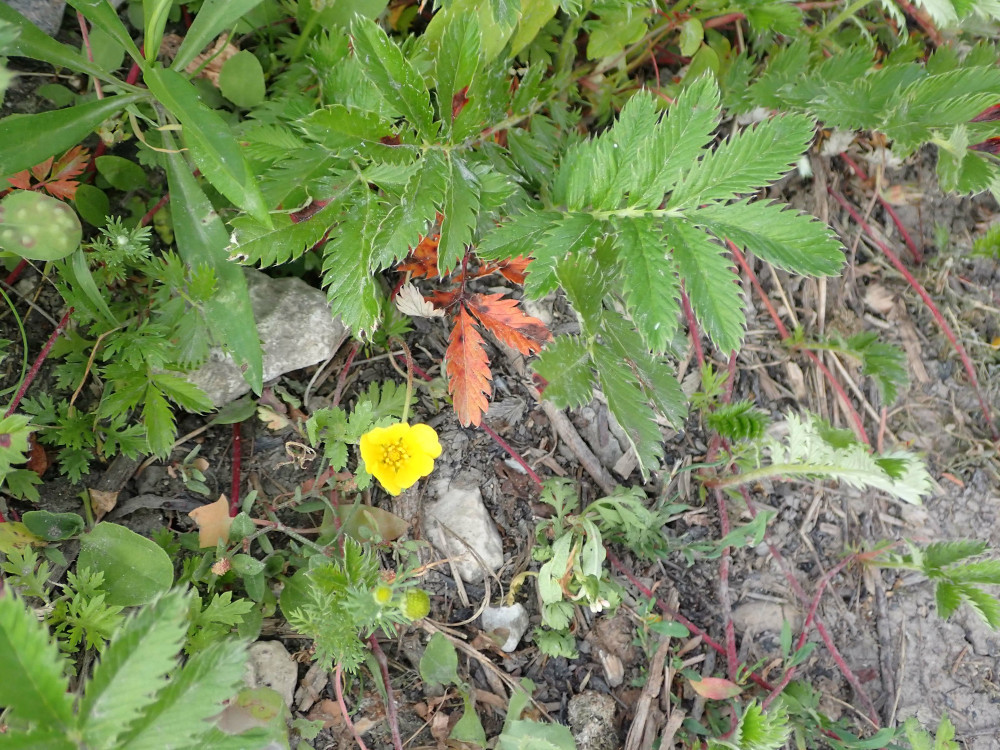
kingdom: Plantae
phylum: Tracheophyta
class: Magnoliopsida
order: Rosales
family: Rosaceae
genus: Argentina
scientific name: Argentina anserina
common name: Common silverweed
